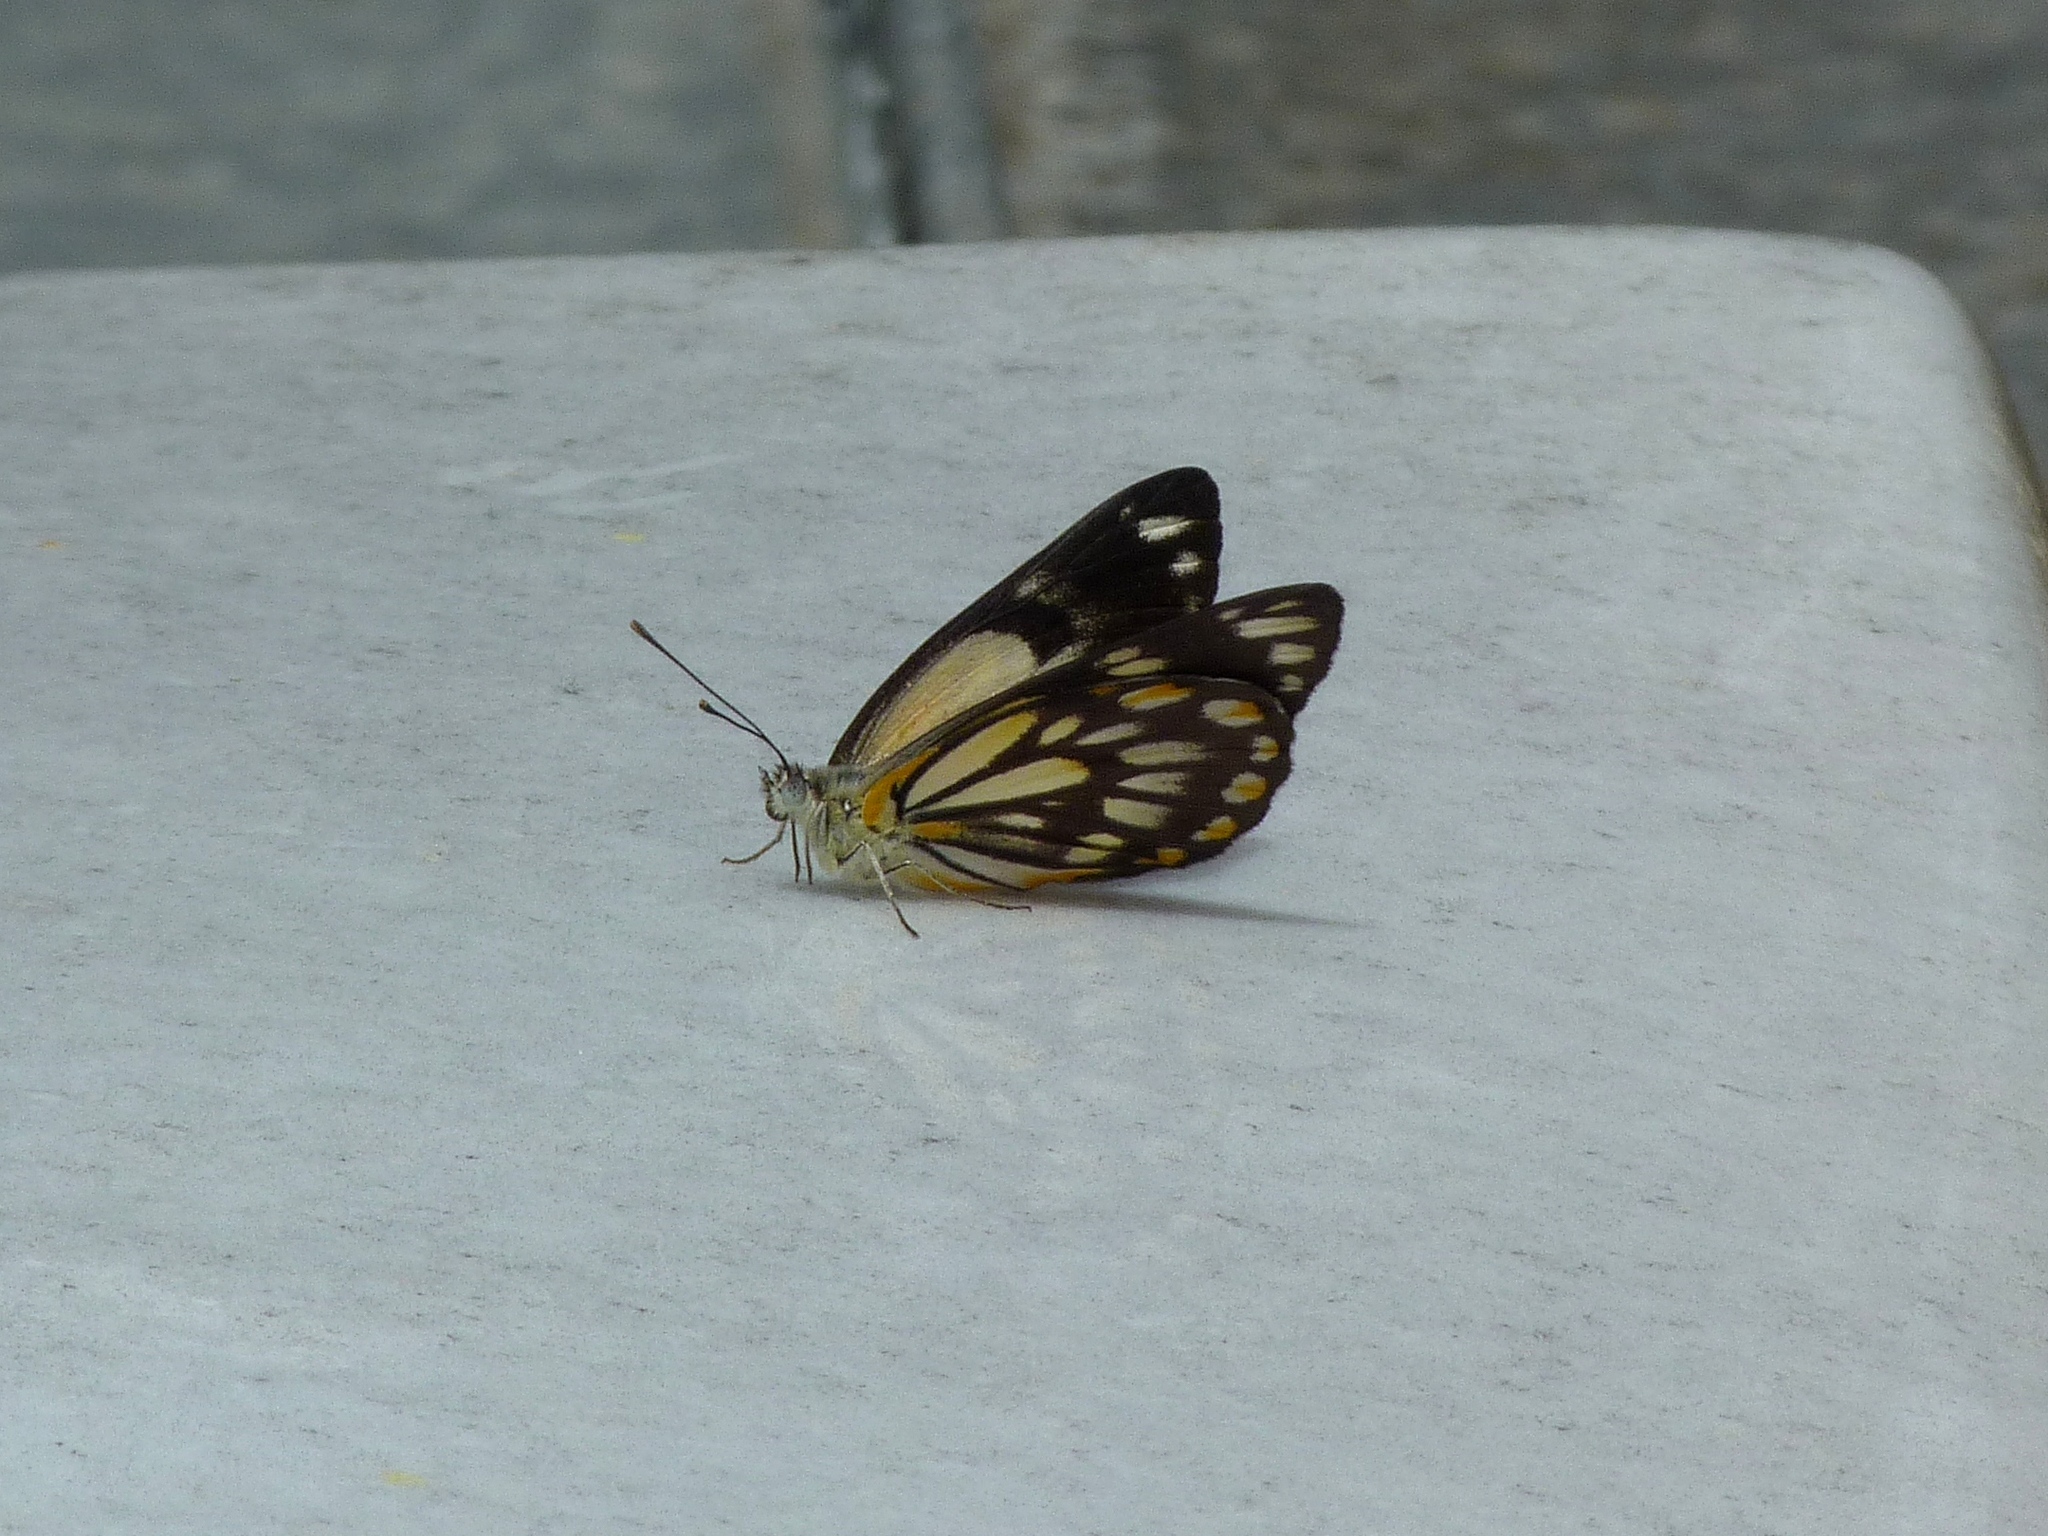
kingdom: Animalia
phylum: Arthropoda
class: Insecta
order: Lepidoptera
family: Pieridae
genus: Belenois
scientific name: Belenois java
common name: Caper white
